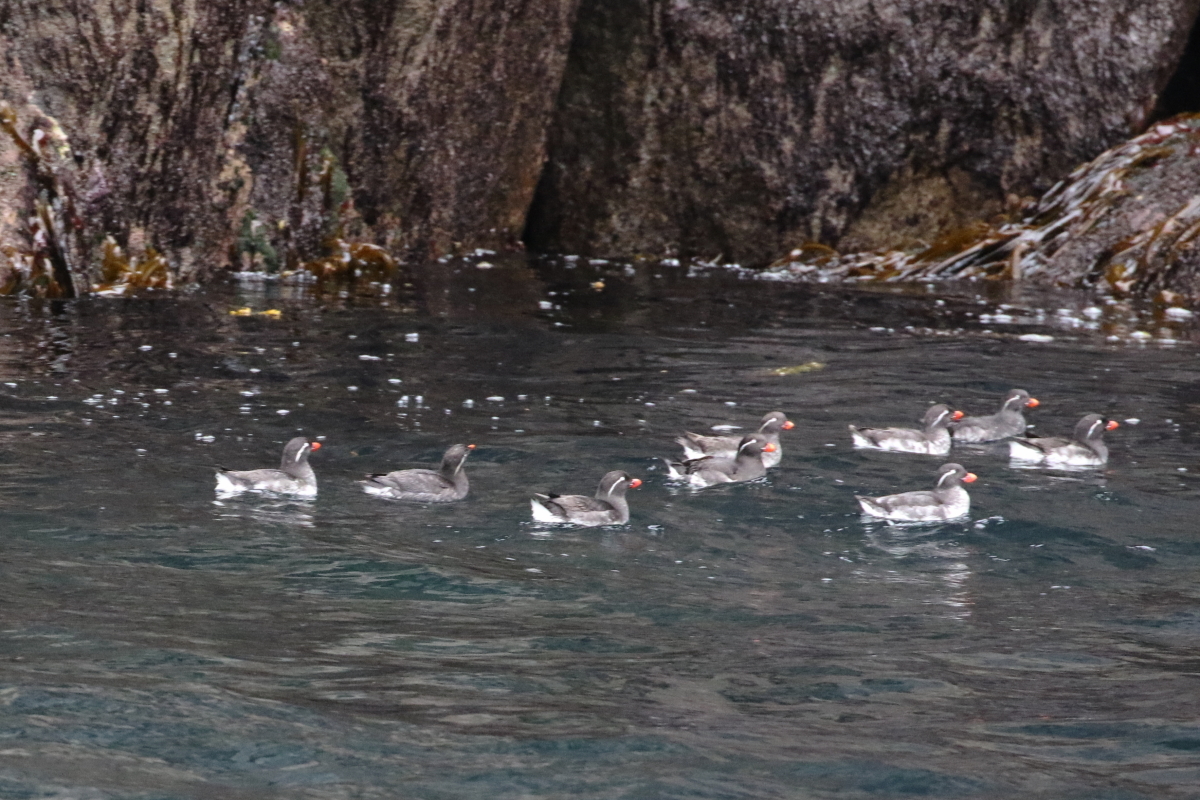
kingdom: Animalia
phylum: Chordata
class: Aves
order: Charadriiformes
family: Alcidae
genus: Aethia
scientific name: Aethia psittacula
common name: Parakeet auklet
